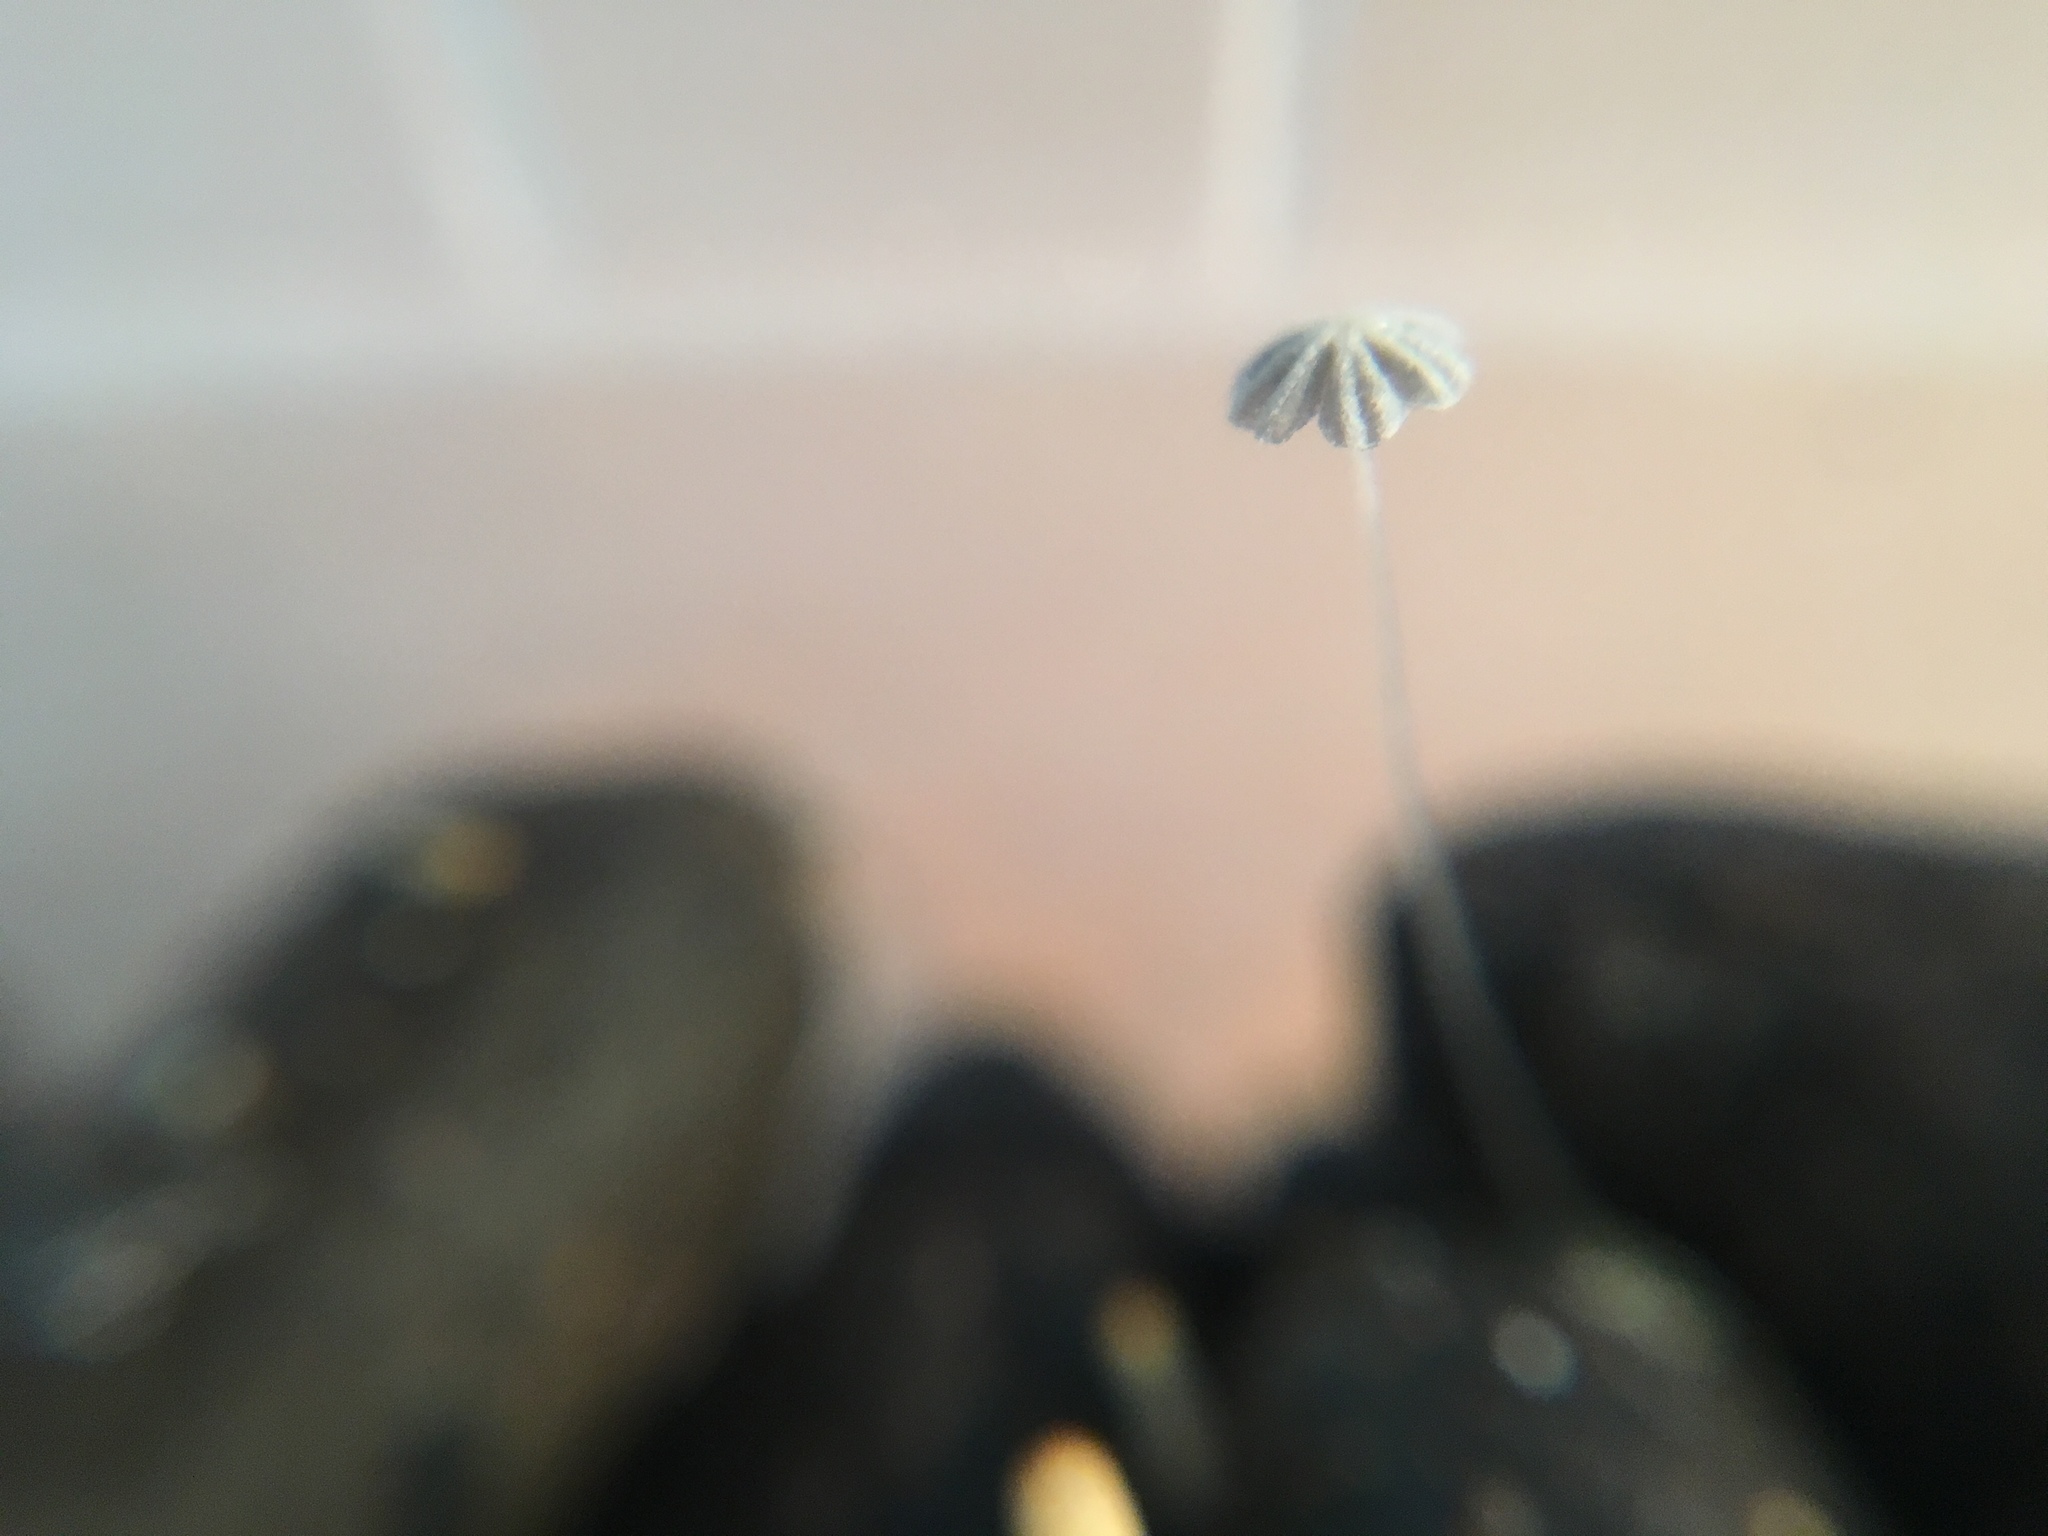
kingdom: Fungi
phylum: Basidiomycota
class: Agaricomycetes
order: Agaricales
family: Psathyrellaceae
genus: Coprinellus
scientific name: Coprinellus heptemerus
